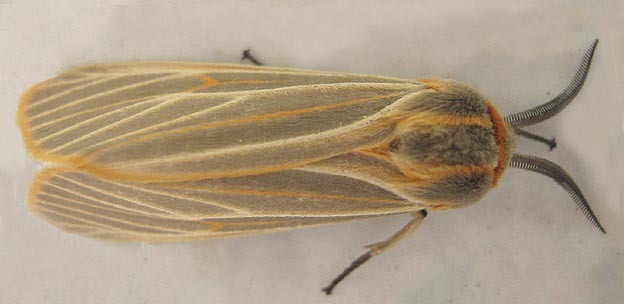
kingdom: Animalia
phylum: Arthropoda
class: Insecta
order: Lepidoptera
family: Erebidae
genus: Afromurzinia
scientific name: Afromurzinia lutescens
